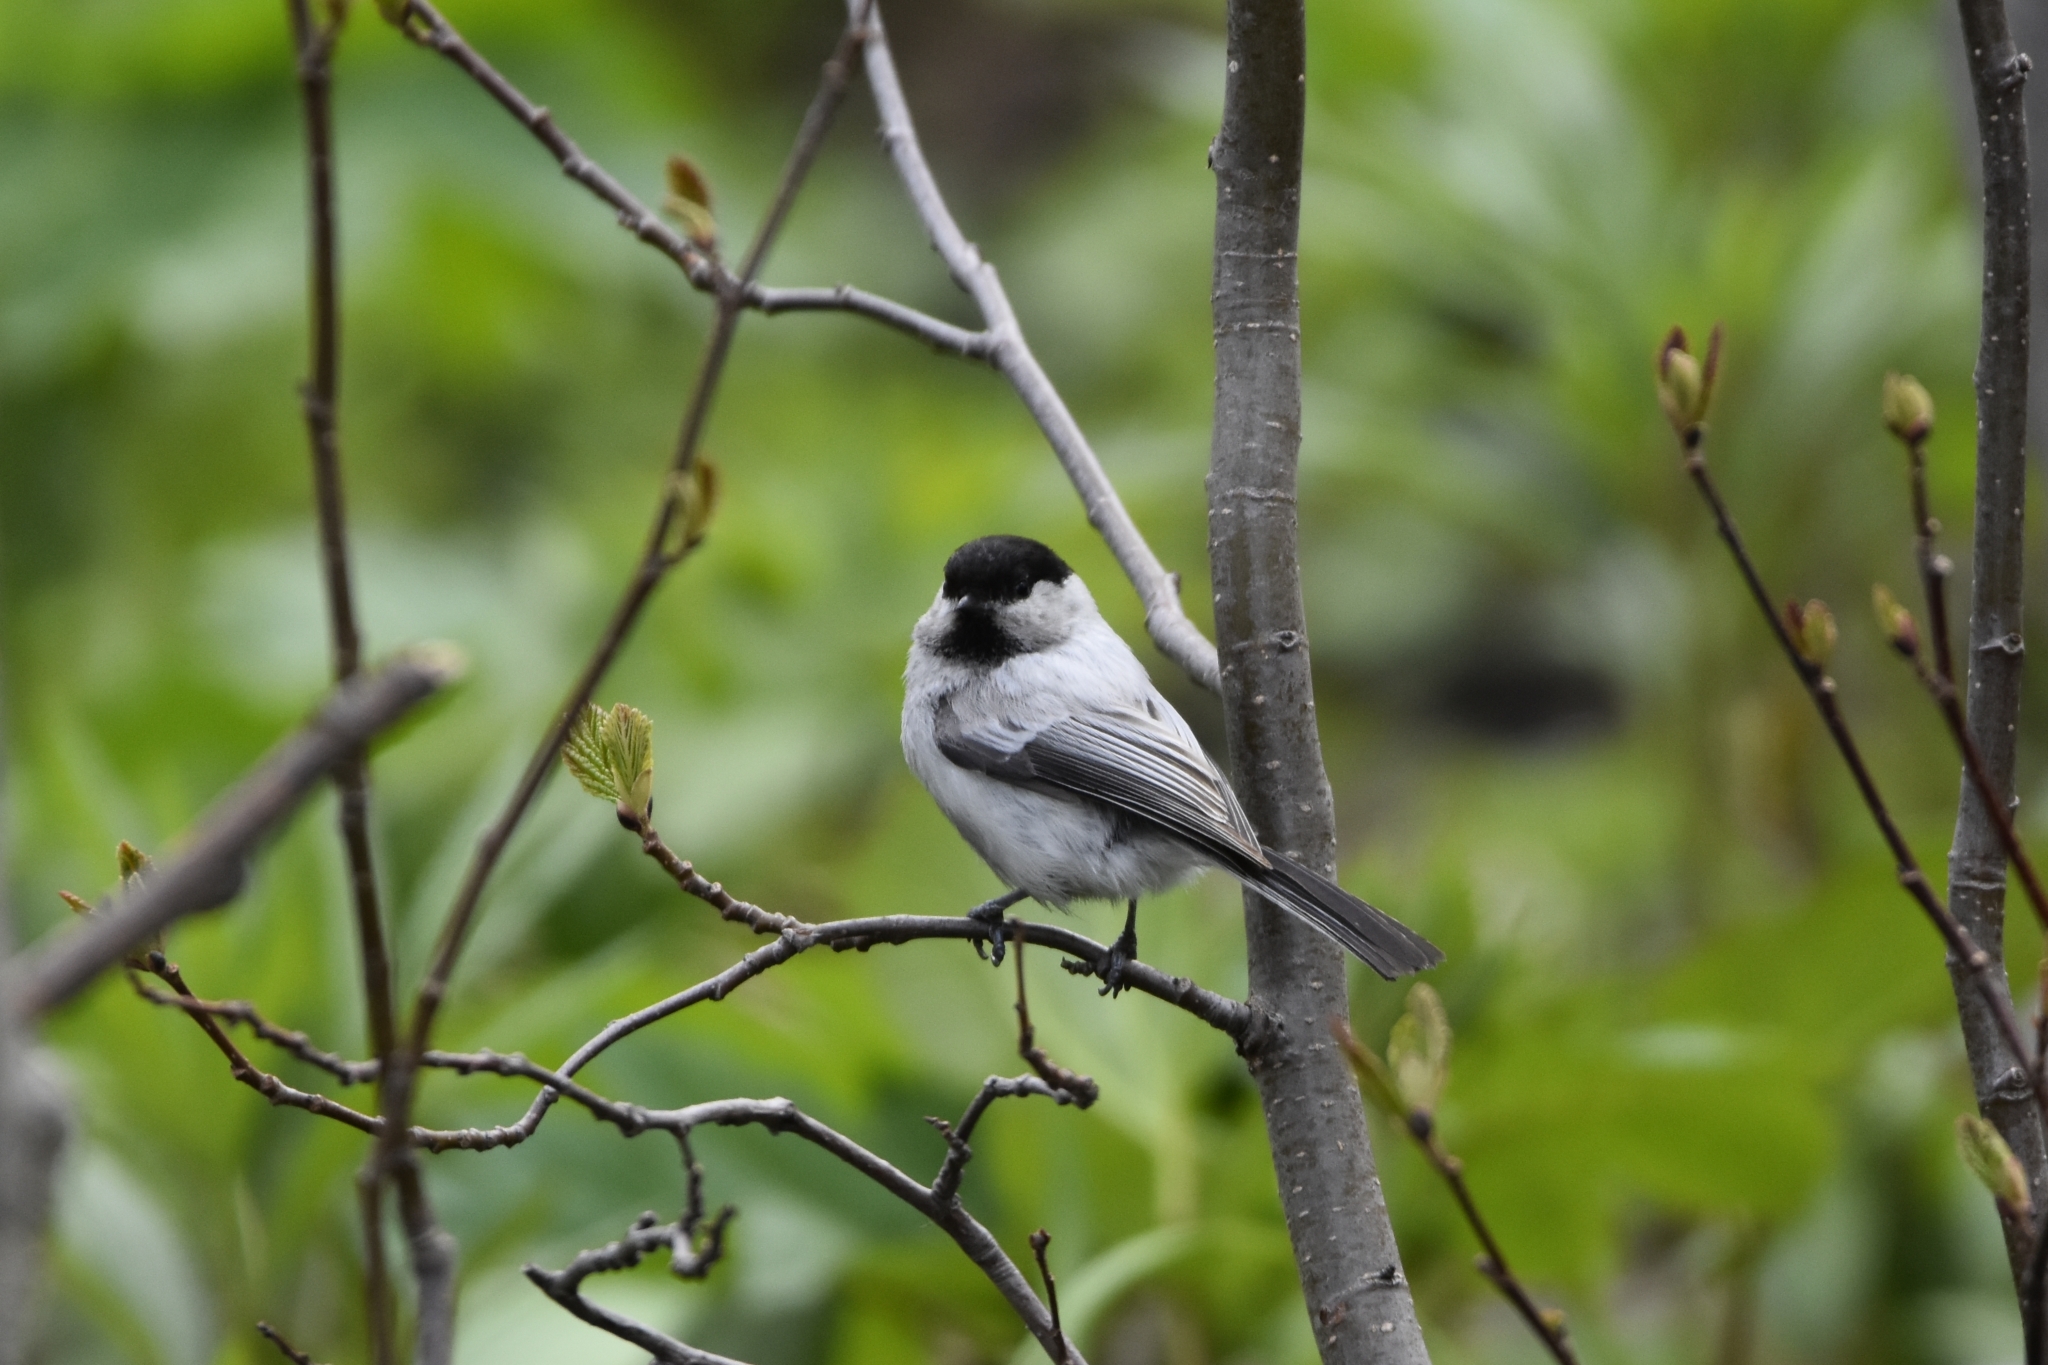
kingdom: Animalia
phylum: Chordata
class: Aves
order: Passeriformes
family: Paridae
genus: Poecile
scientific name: Poecile montanus
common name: Willow tit
